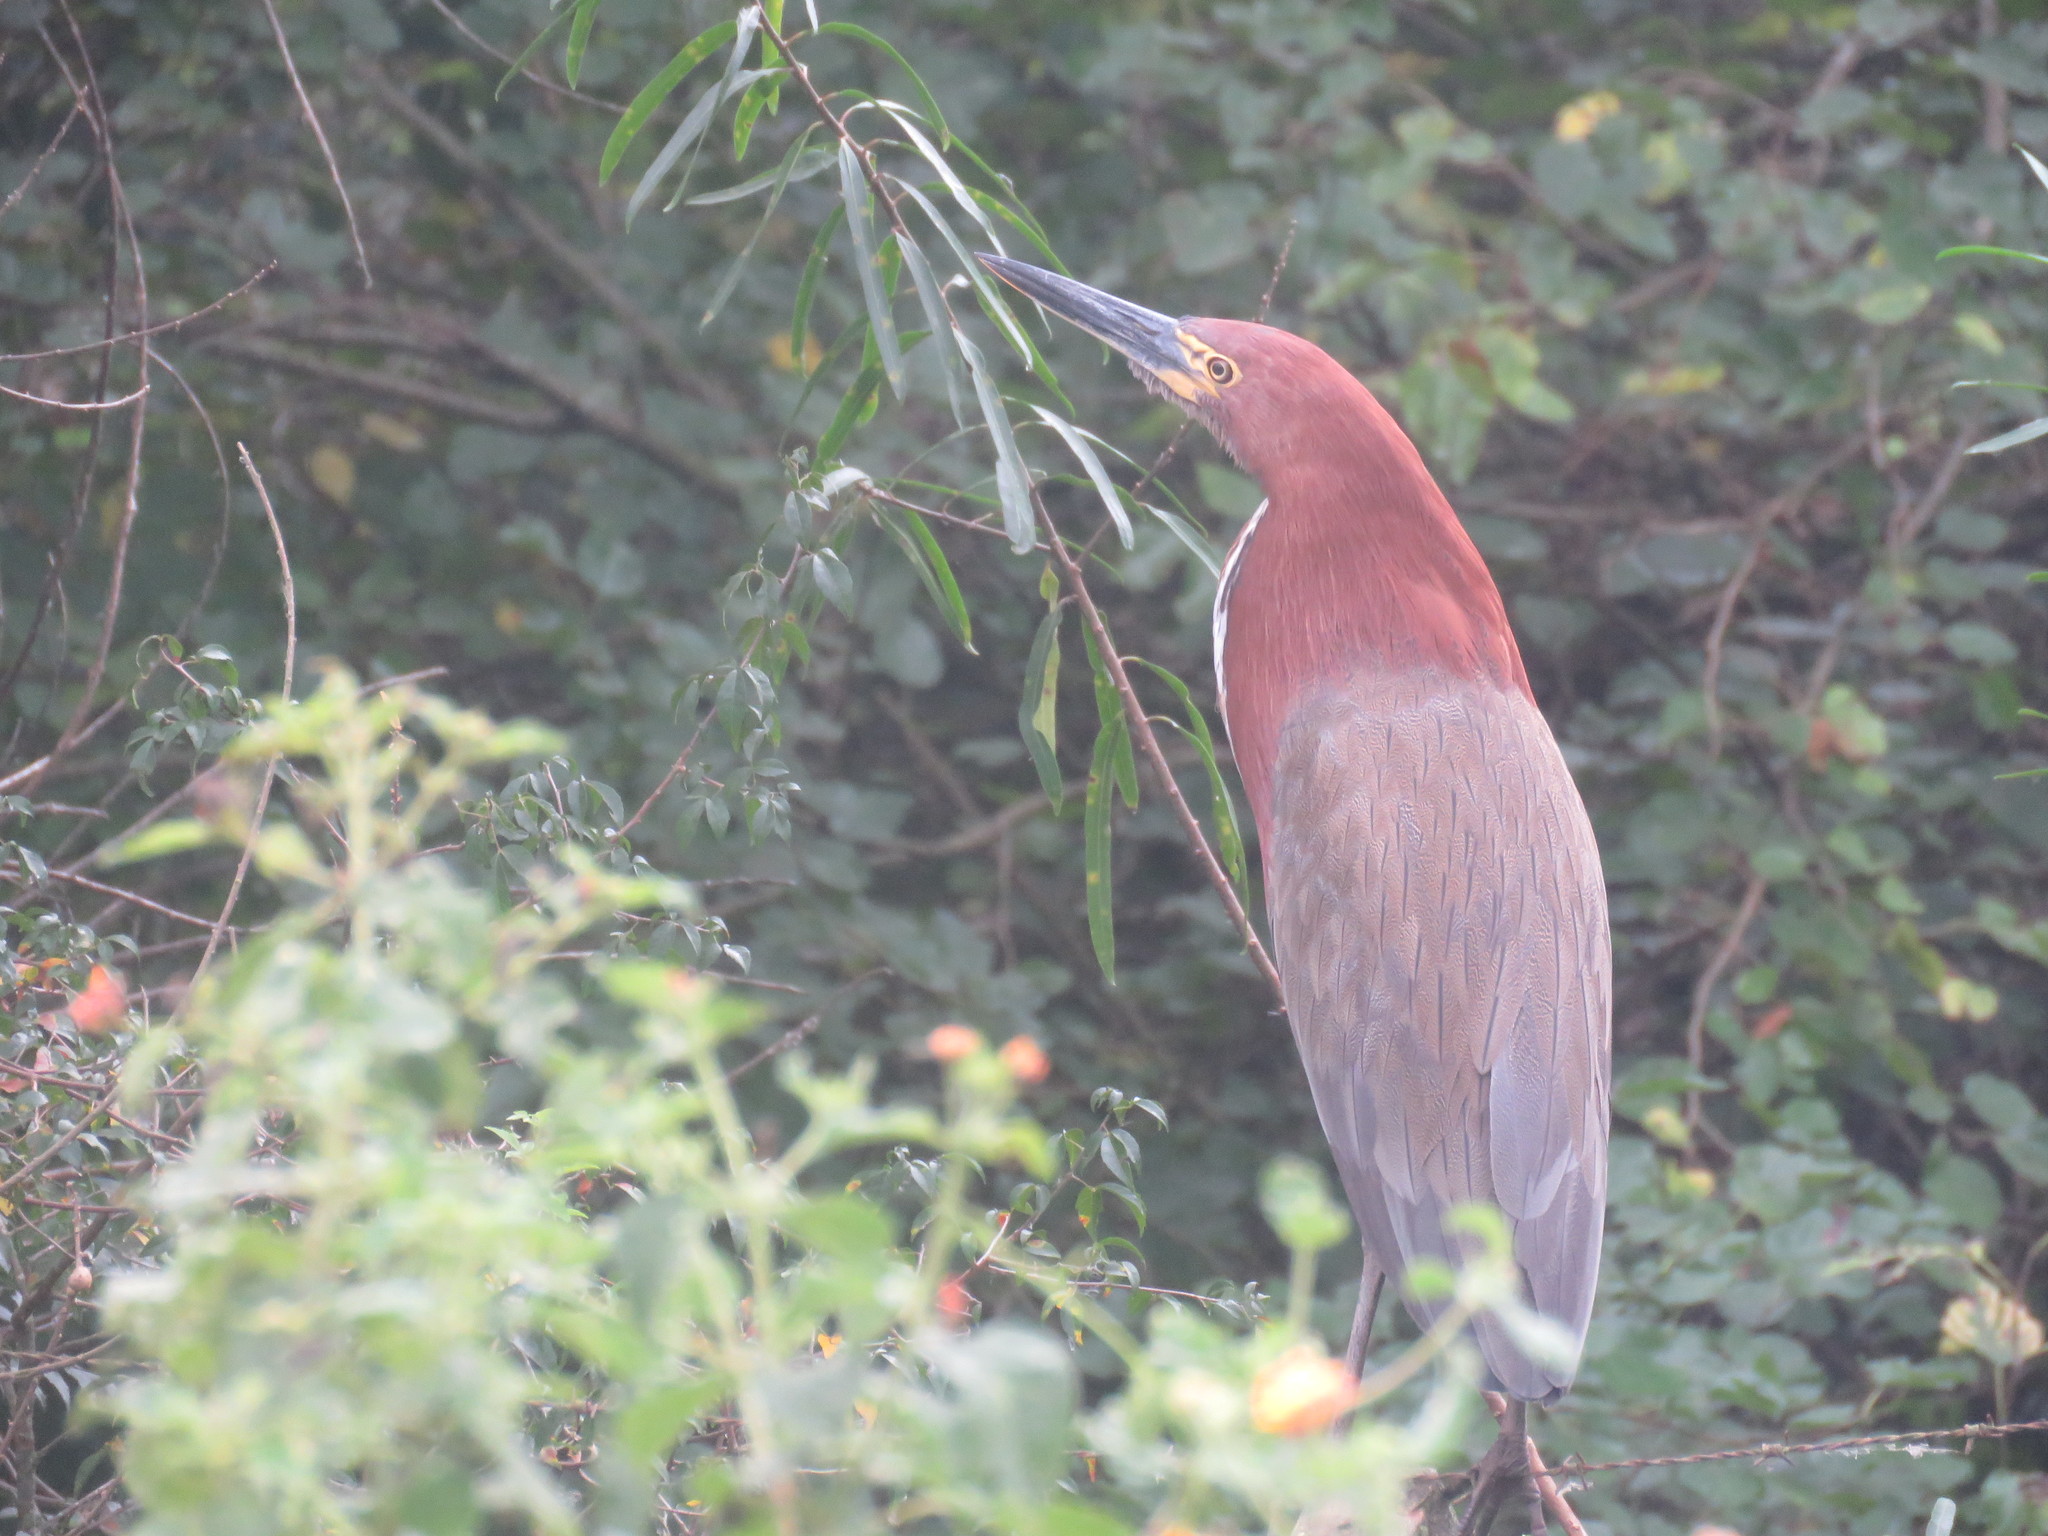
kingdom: Animalia
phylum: Chordata
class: Aves
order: Pelecaniformes
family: Ardeidae
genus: Tigrisoma
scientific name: Tigrisoma lineatum
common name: Rufescent tiger-heron
